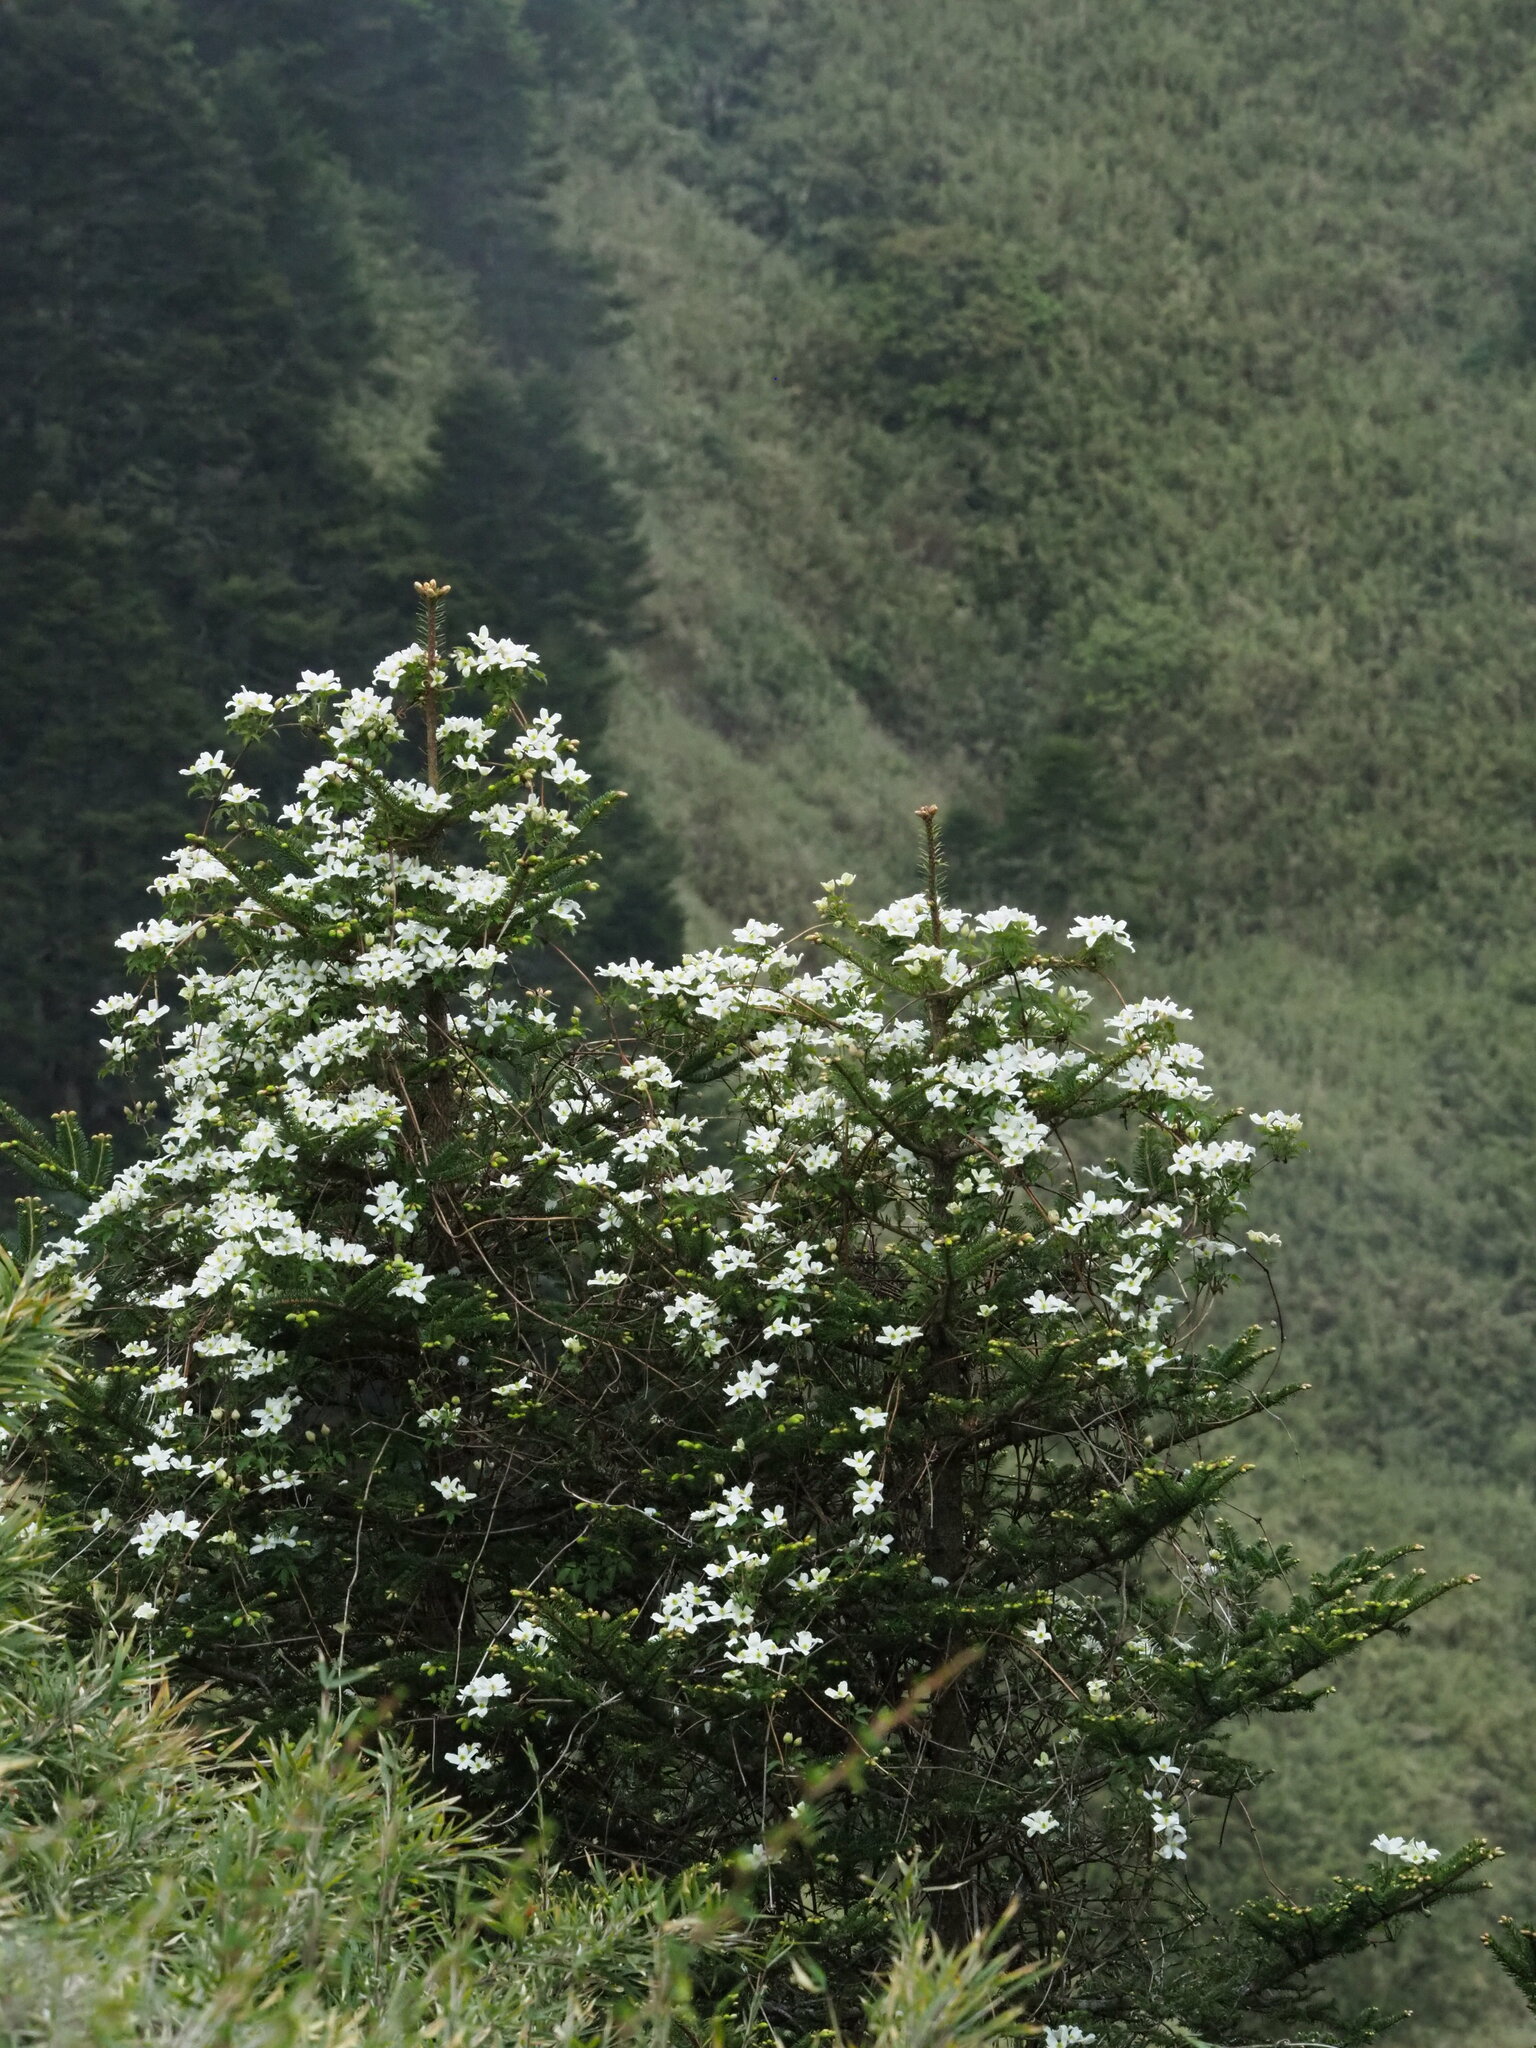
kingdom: Plantae
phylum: Tracheophyta
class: Magnoliopsida
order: Ranunculales
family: Ranunculaceae
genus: Clematis
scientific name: Clematis montana
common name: Himalayan clematis
